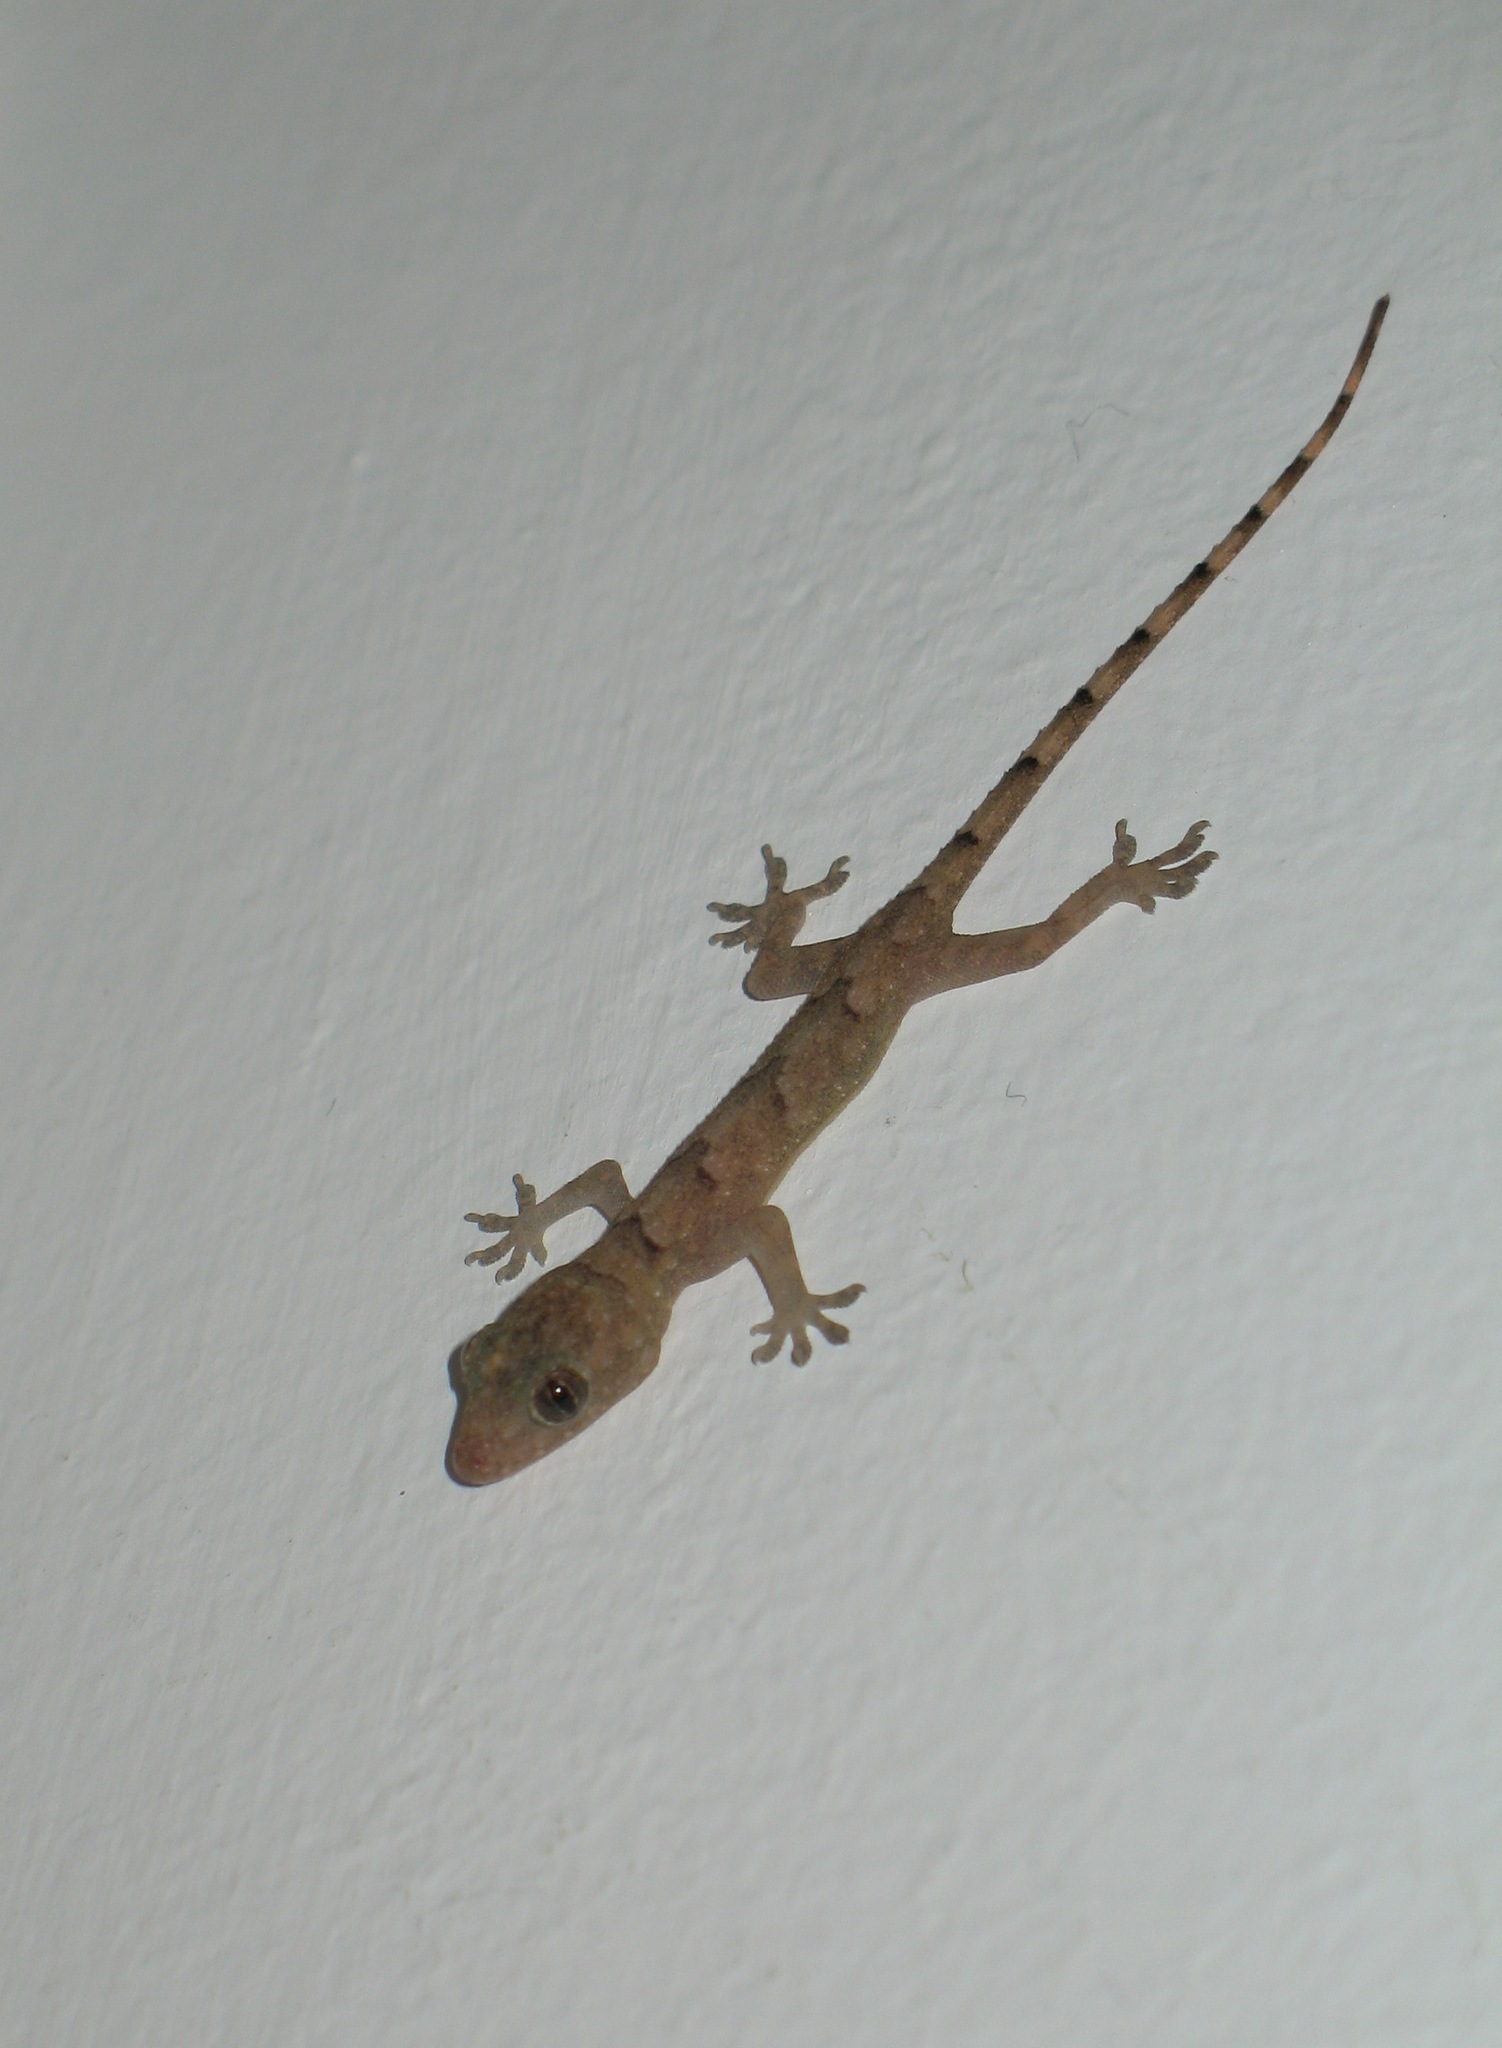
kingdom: Animalia
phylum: Chordata
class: Squamata
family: Gekkonidae
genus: Hemidactylus
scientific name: Hemidactylus mabouia
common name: House gecko
